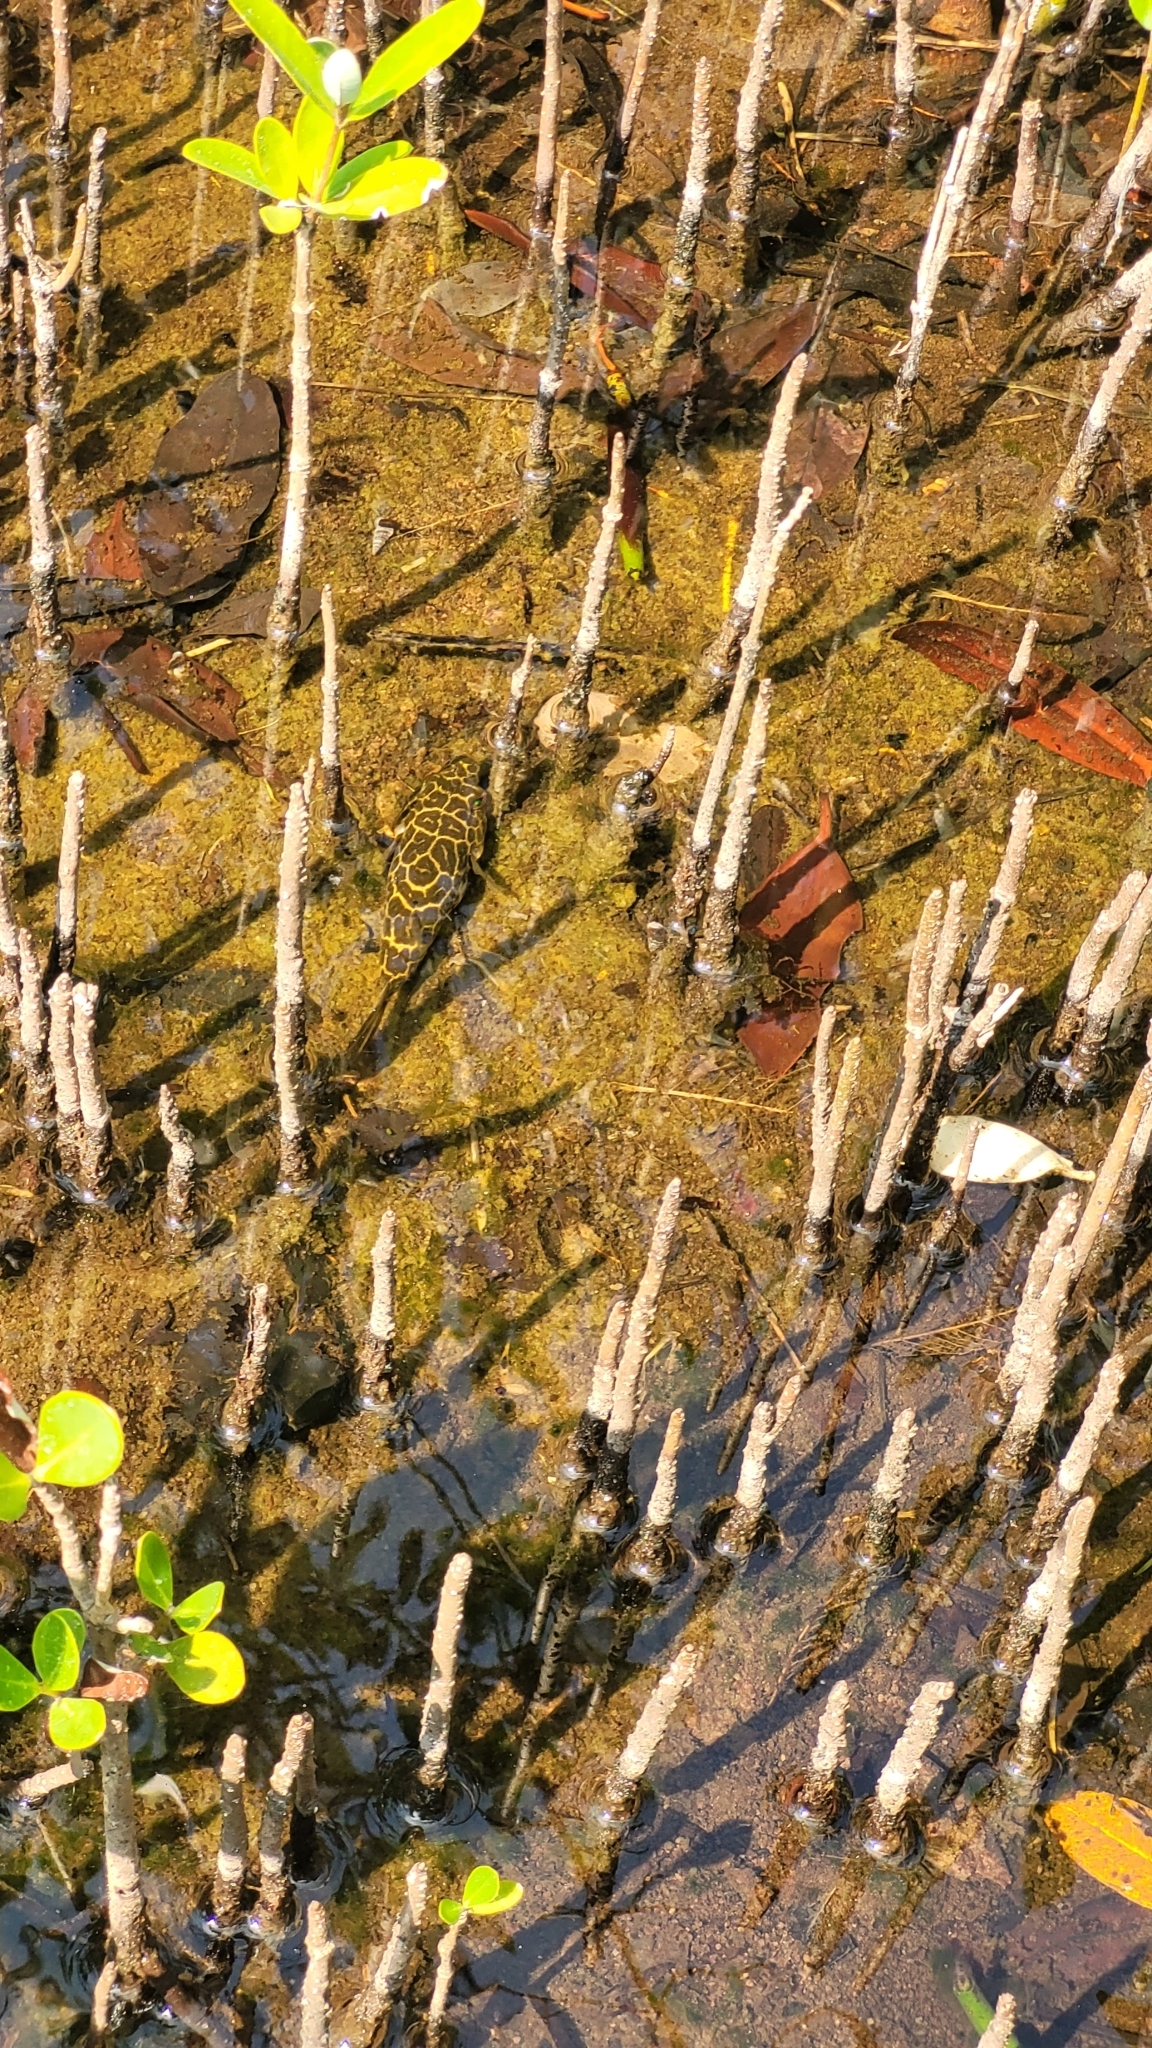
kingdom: Animalia
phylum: Chordata
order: Tetraodontiformes
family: Tetraodontidae
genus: Sphoeroides
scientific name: Sphoeroides testudineus
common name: Checkered puffer
